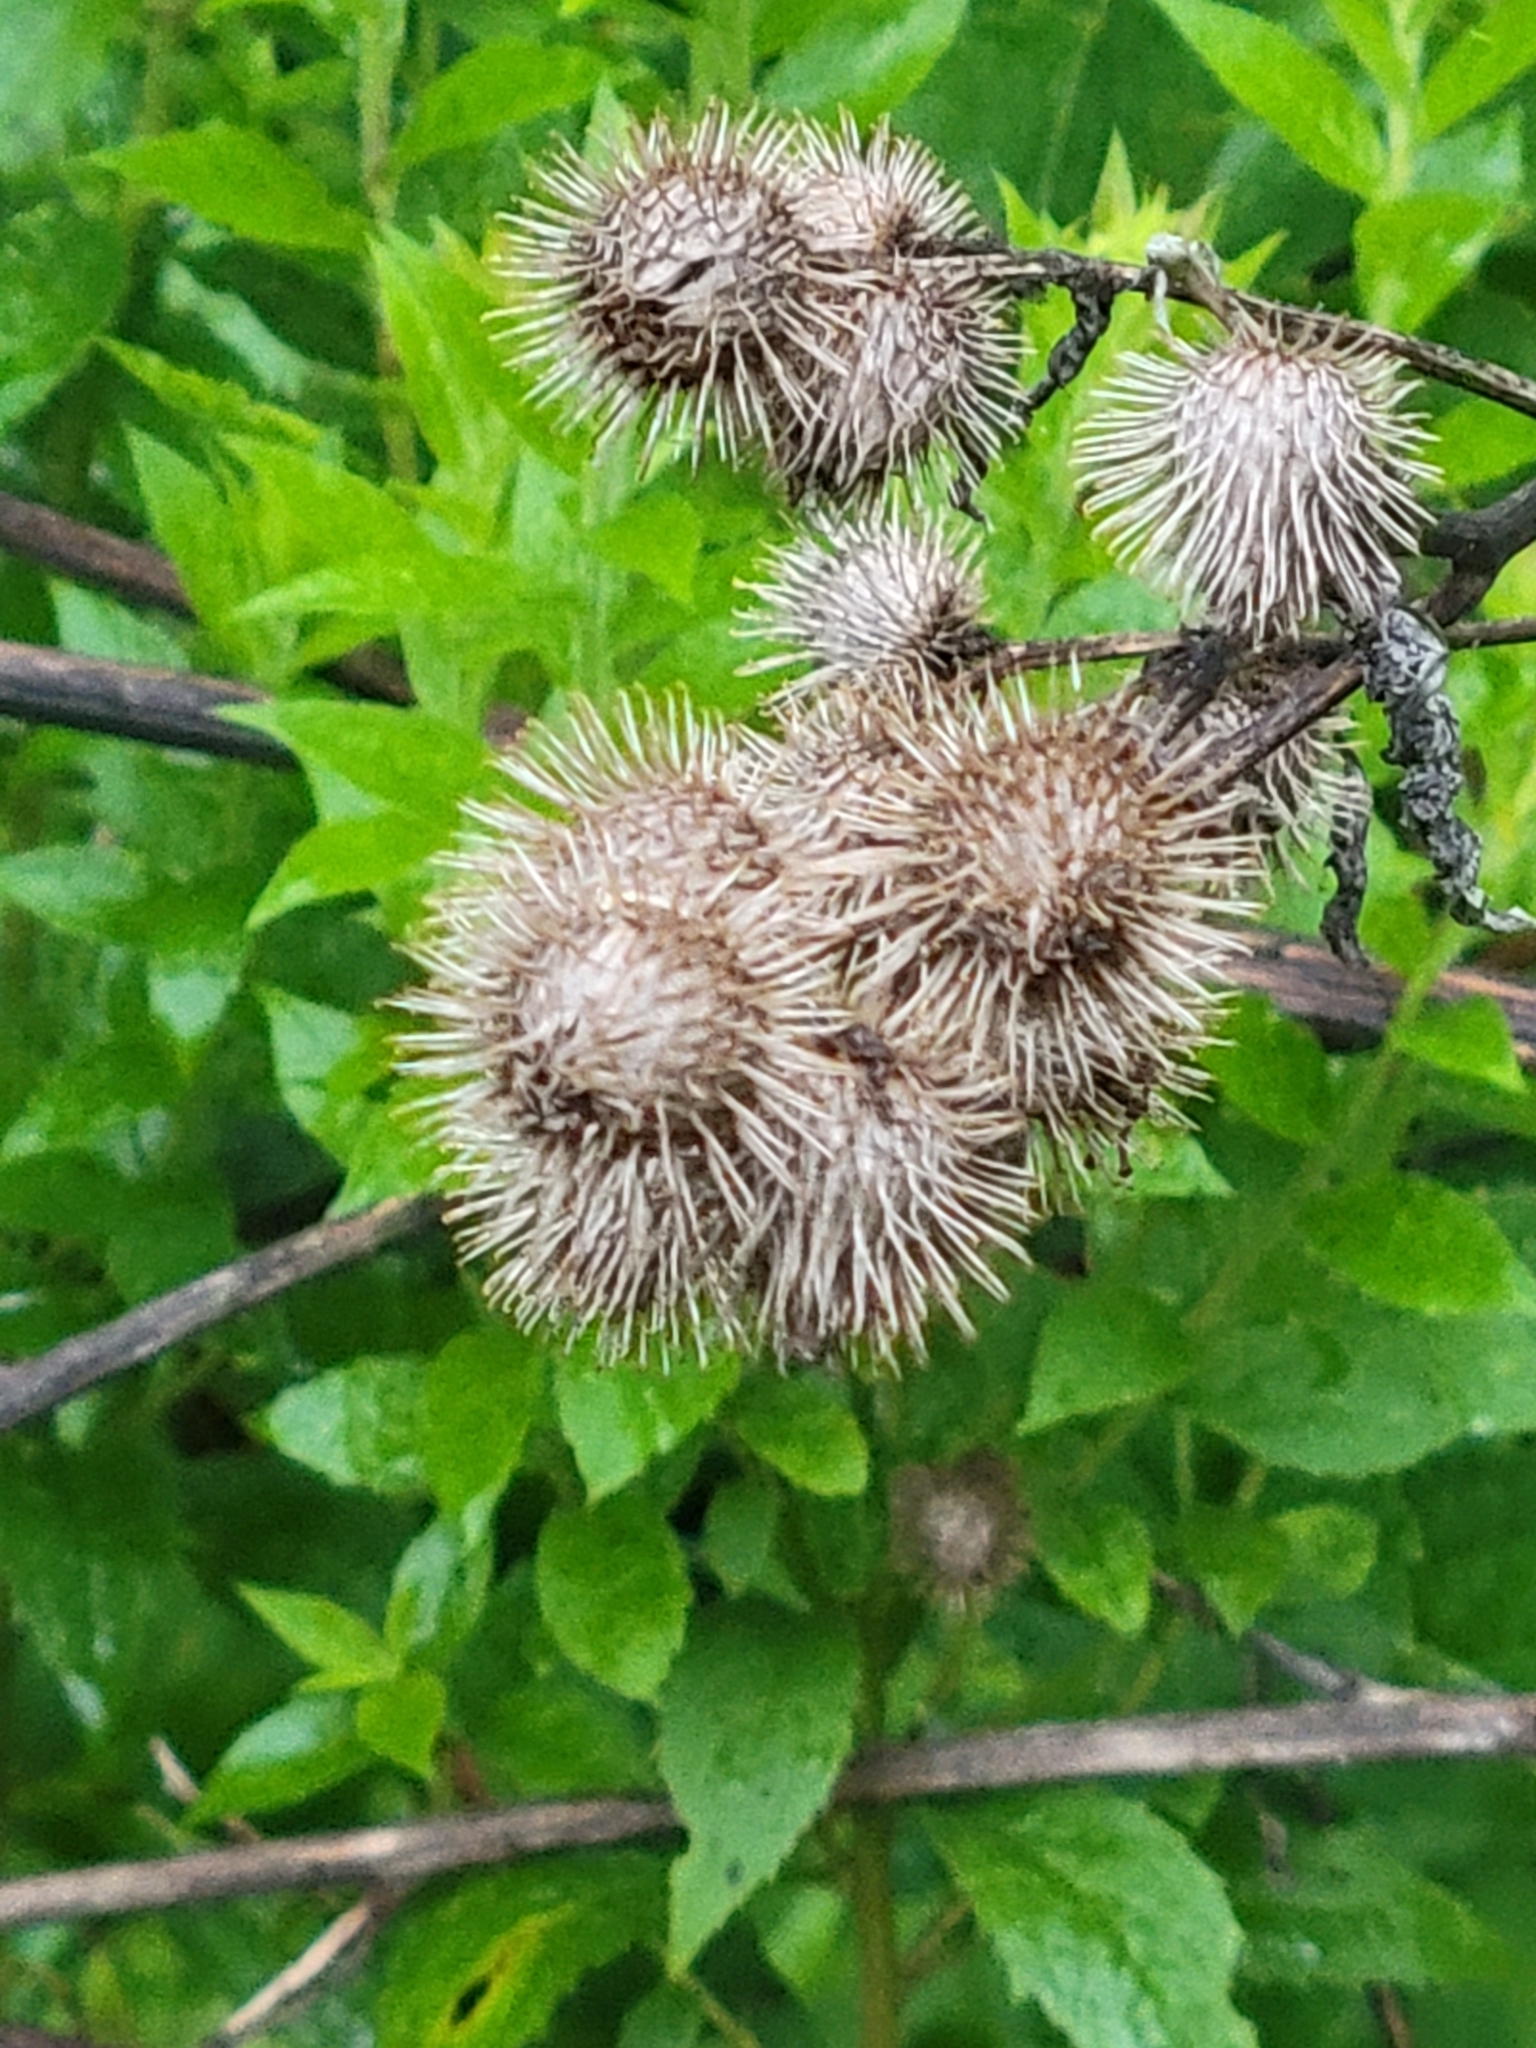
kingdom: Plantae
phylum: Tracheophyta
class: Magnoliopsida
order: Asterales
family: Asteraceae
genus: Arctium
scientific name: Arctium minus
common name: Lesser burdock
